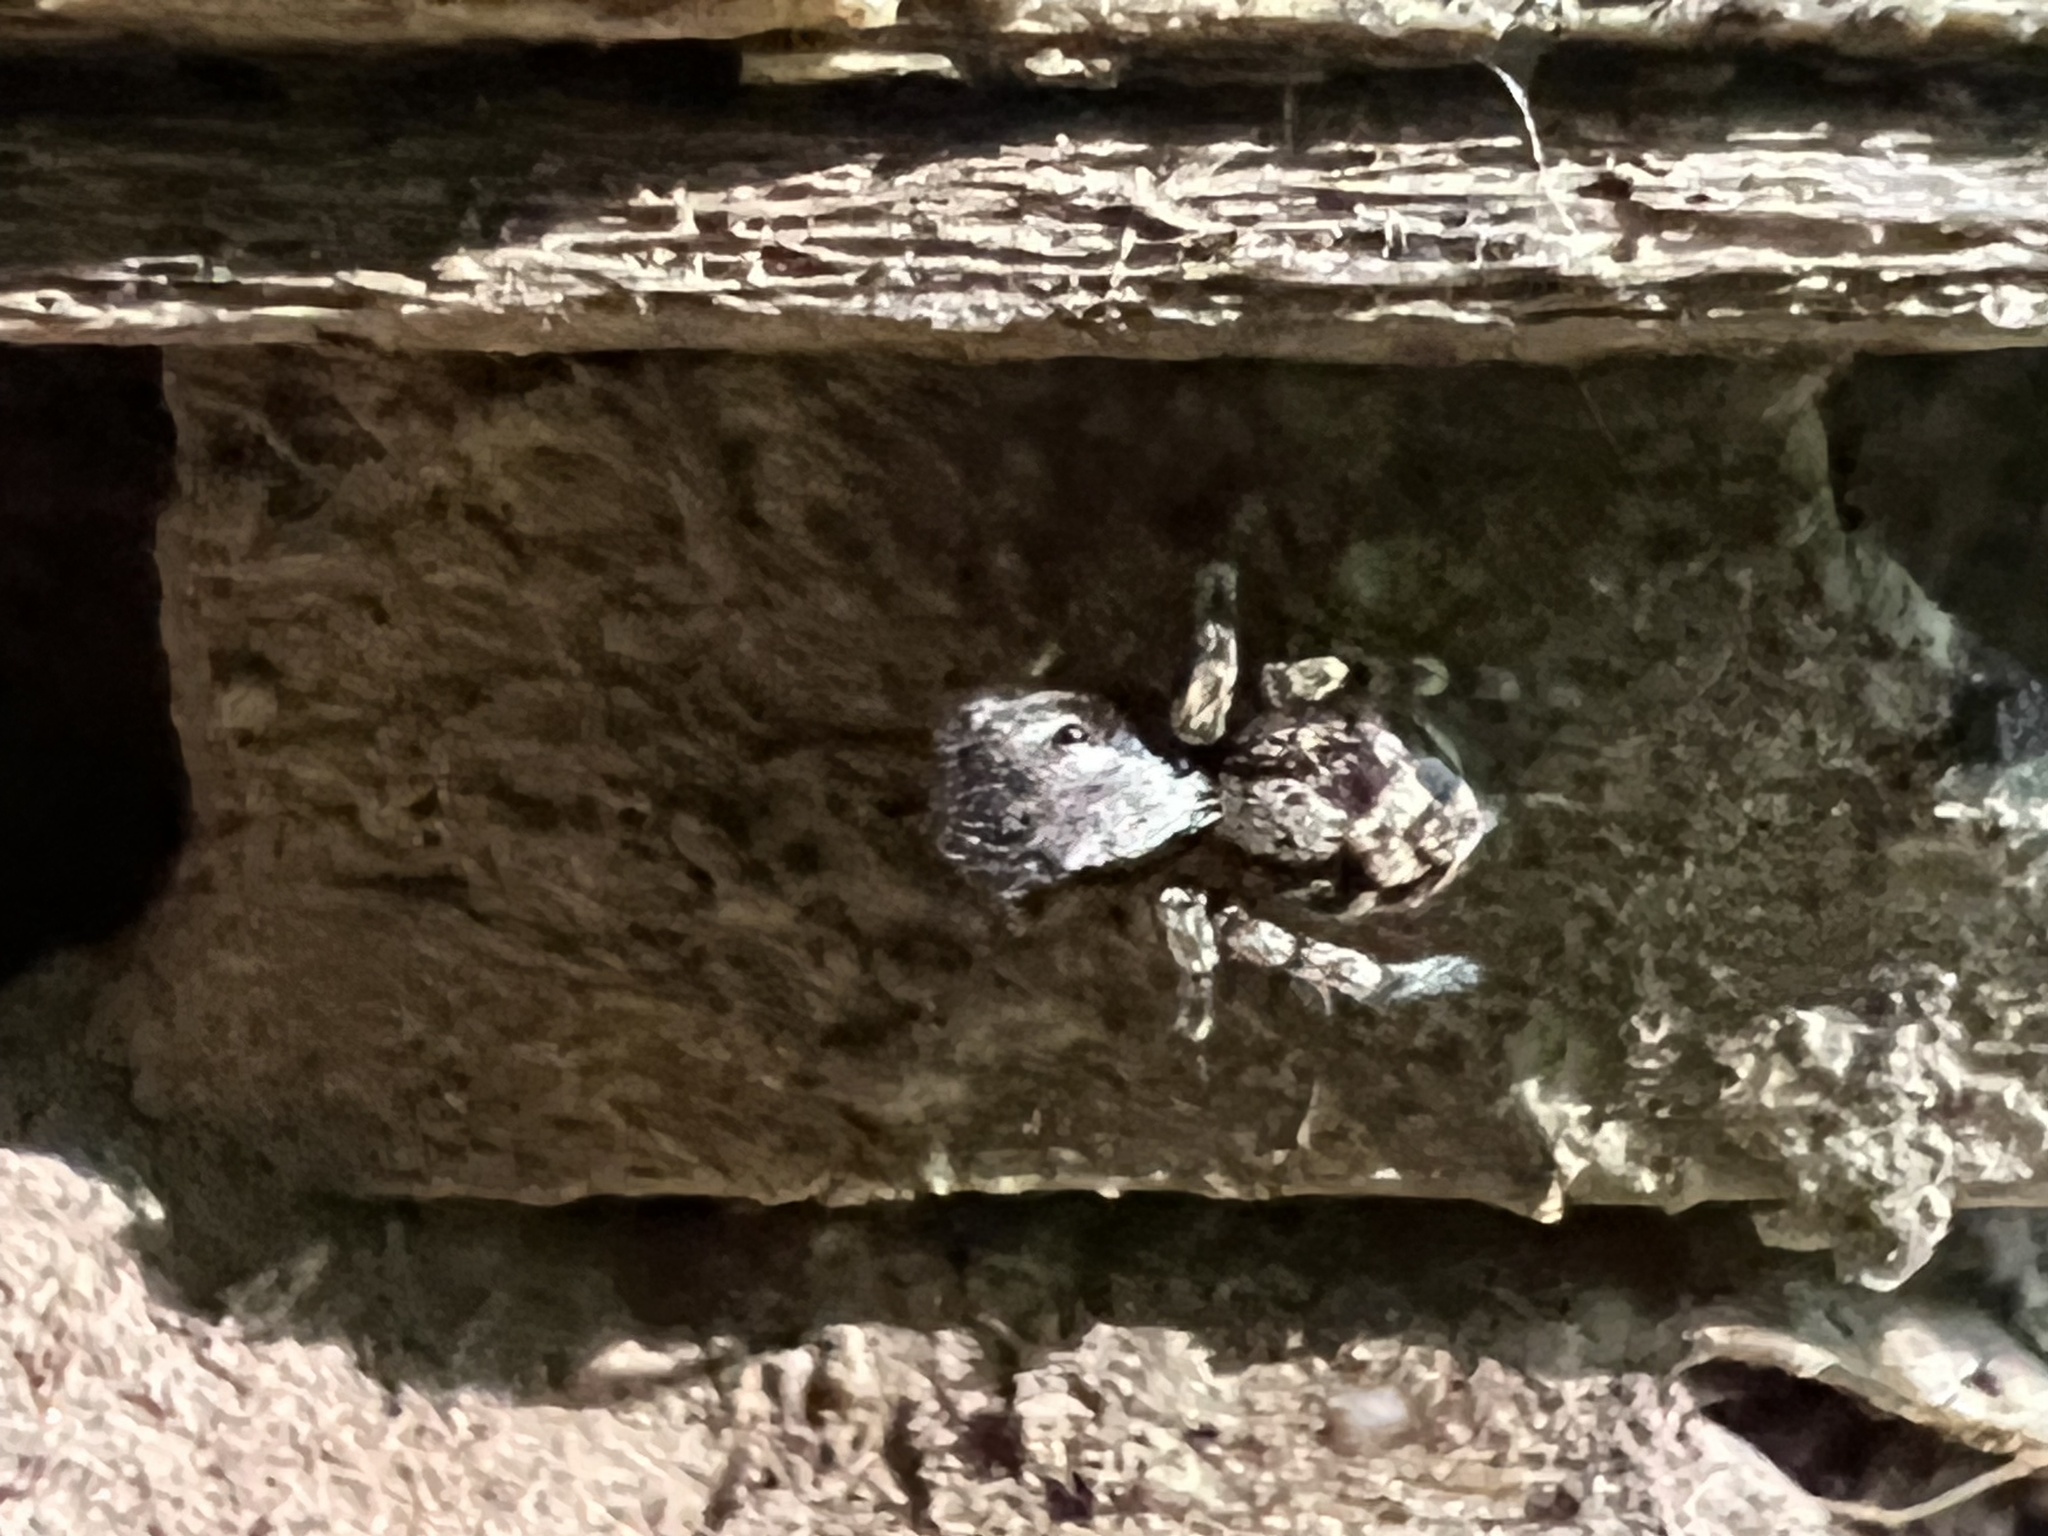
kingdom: Animalia
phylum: Arthropoda
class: Arachnida
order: Araneae
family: Salticidae
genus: Naphrys
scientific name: Naphrys pulex
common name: Flea jumping spider
